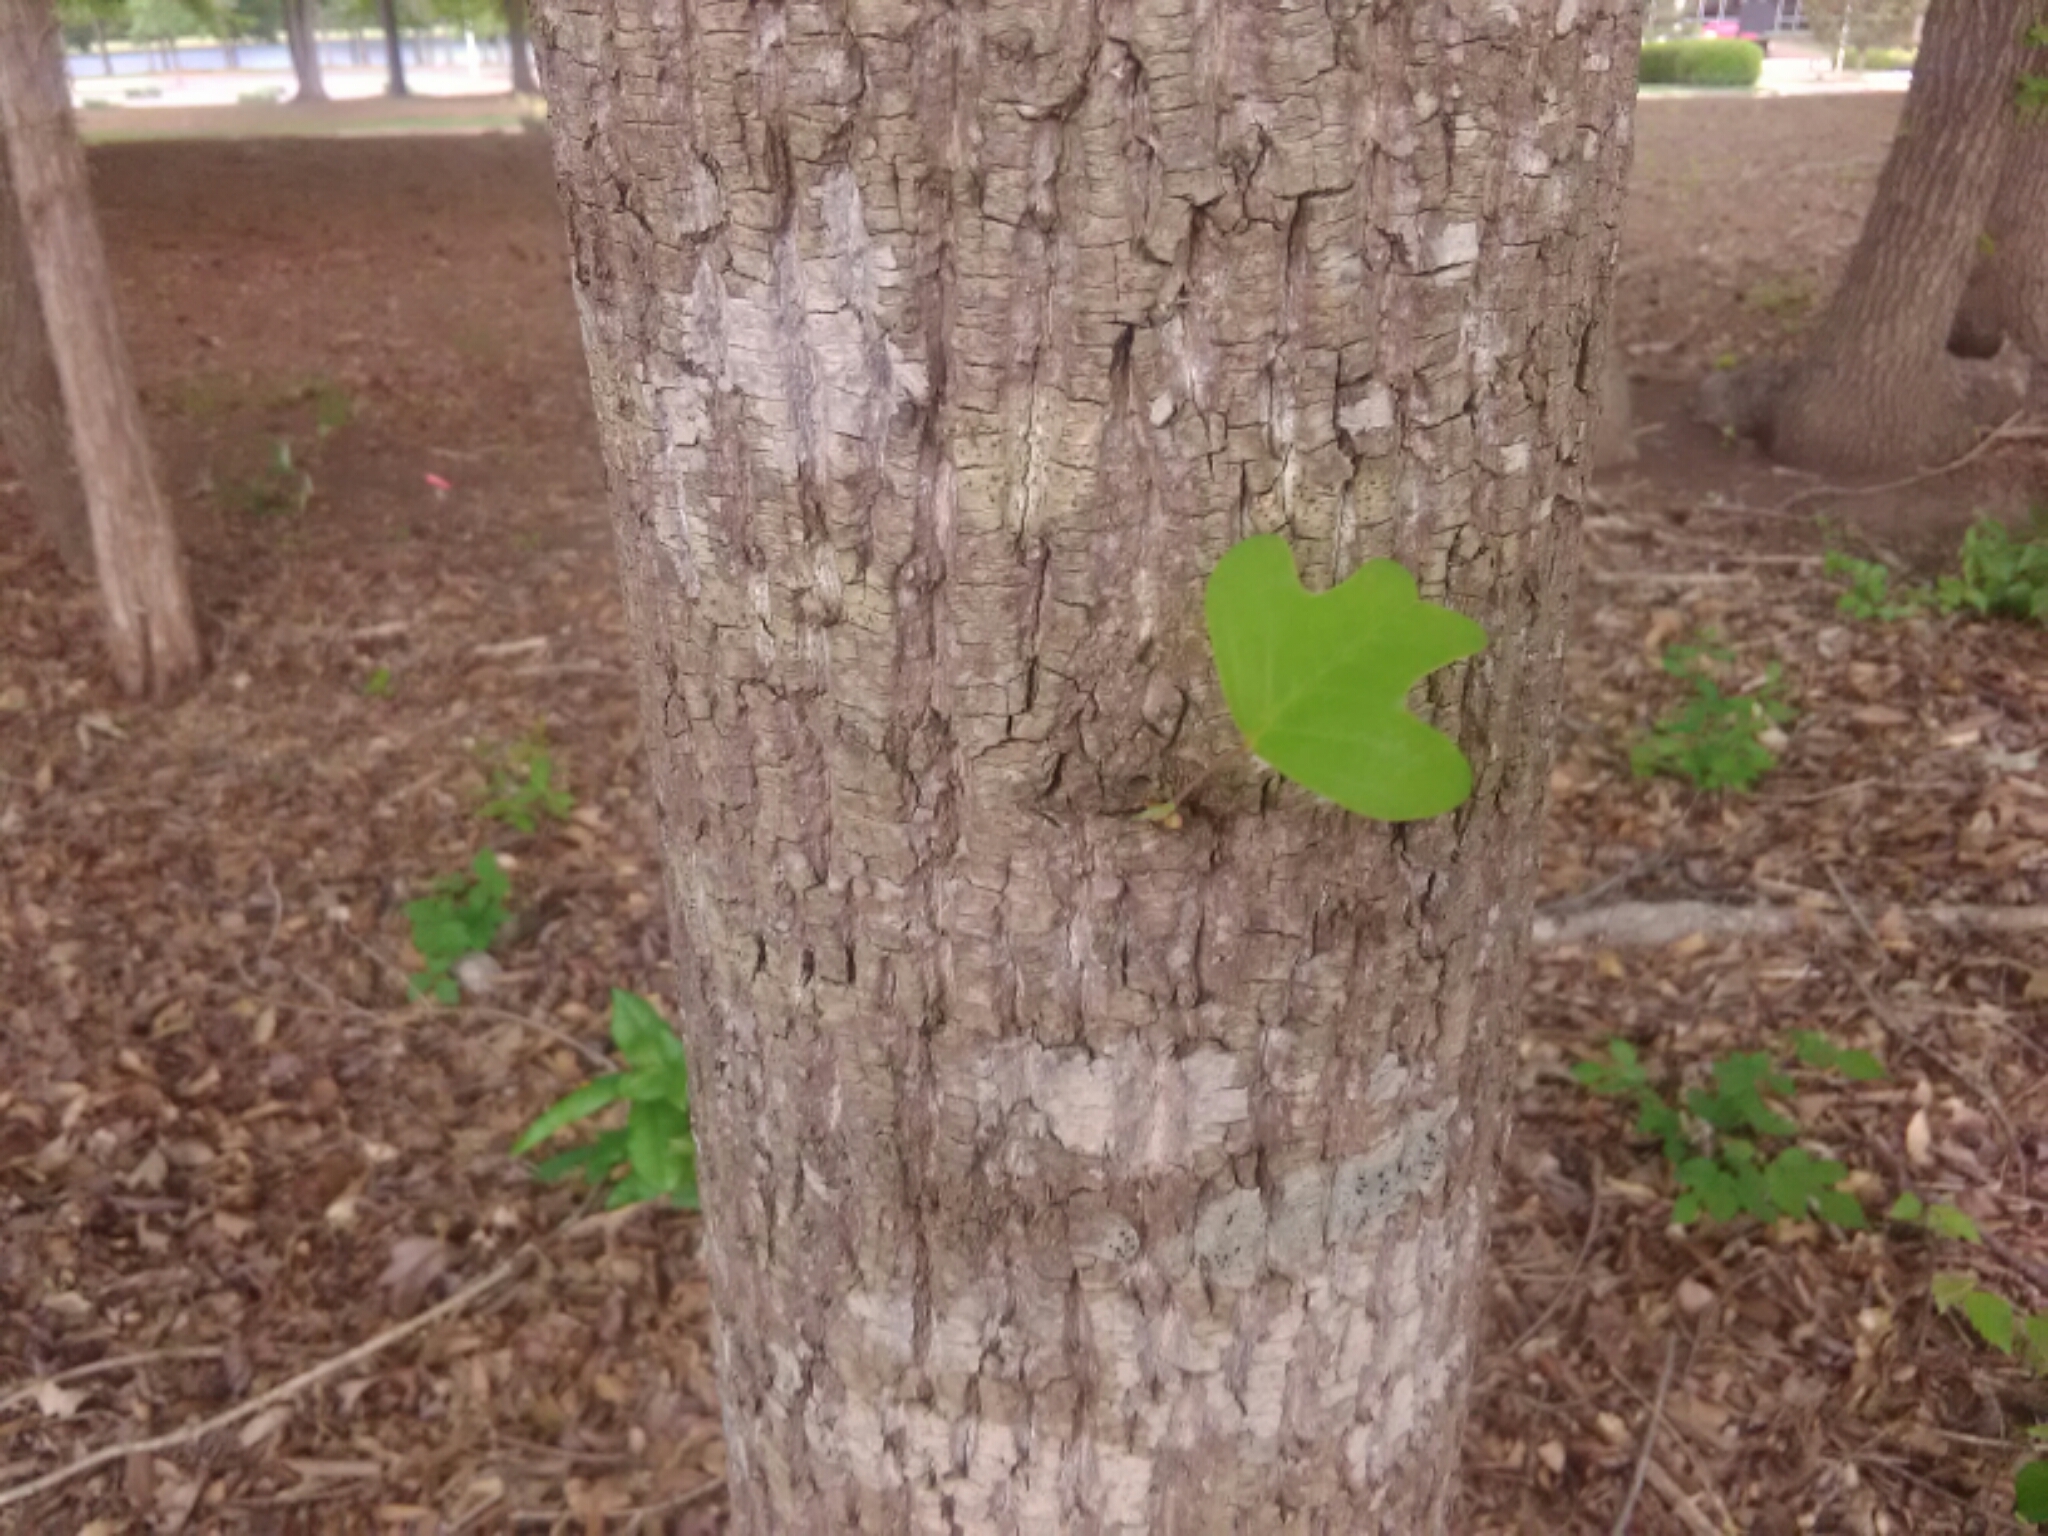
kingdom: Plantae
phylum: Tracheophyta
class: Magnoliopsida
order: Magnoliales
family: Magnoliaceae
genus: Liriodendron
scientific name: Liriodendron tulipifera
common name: Tulip tree
